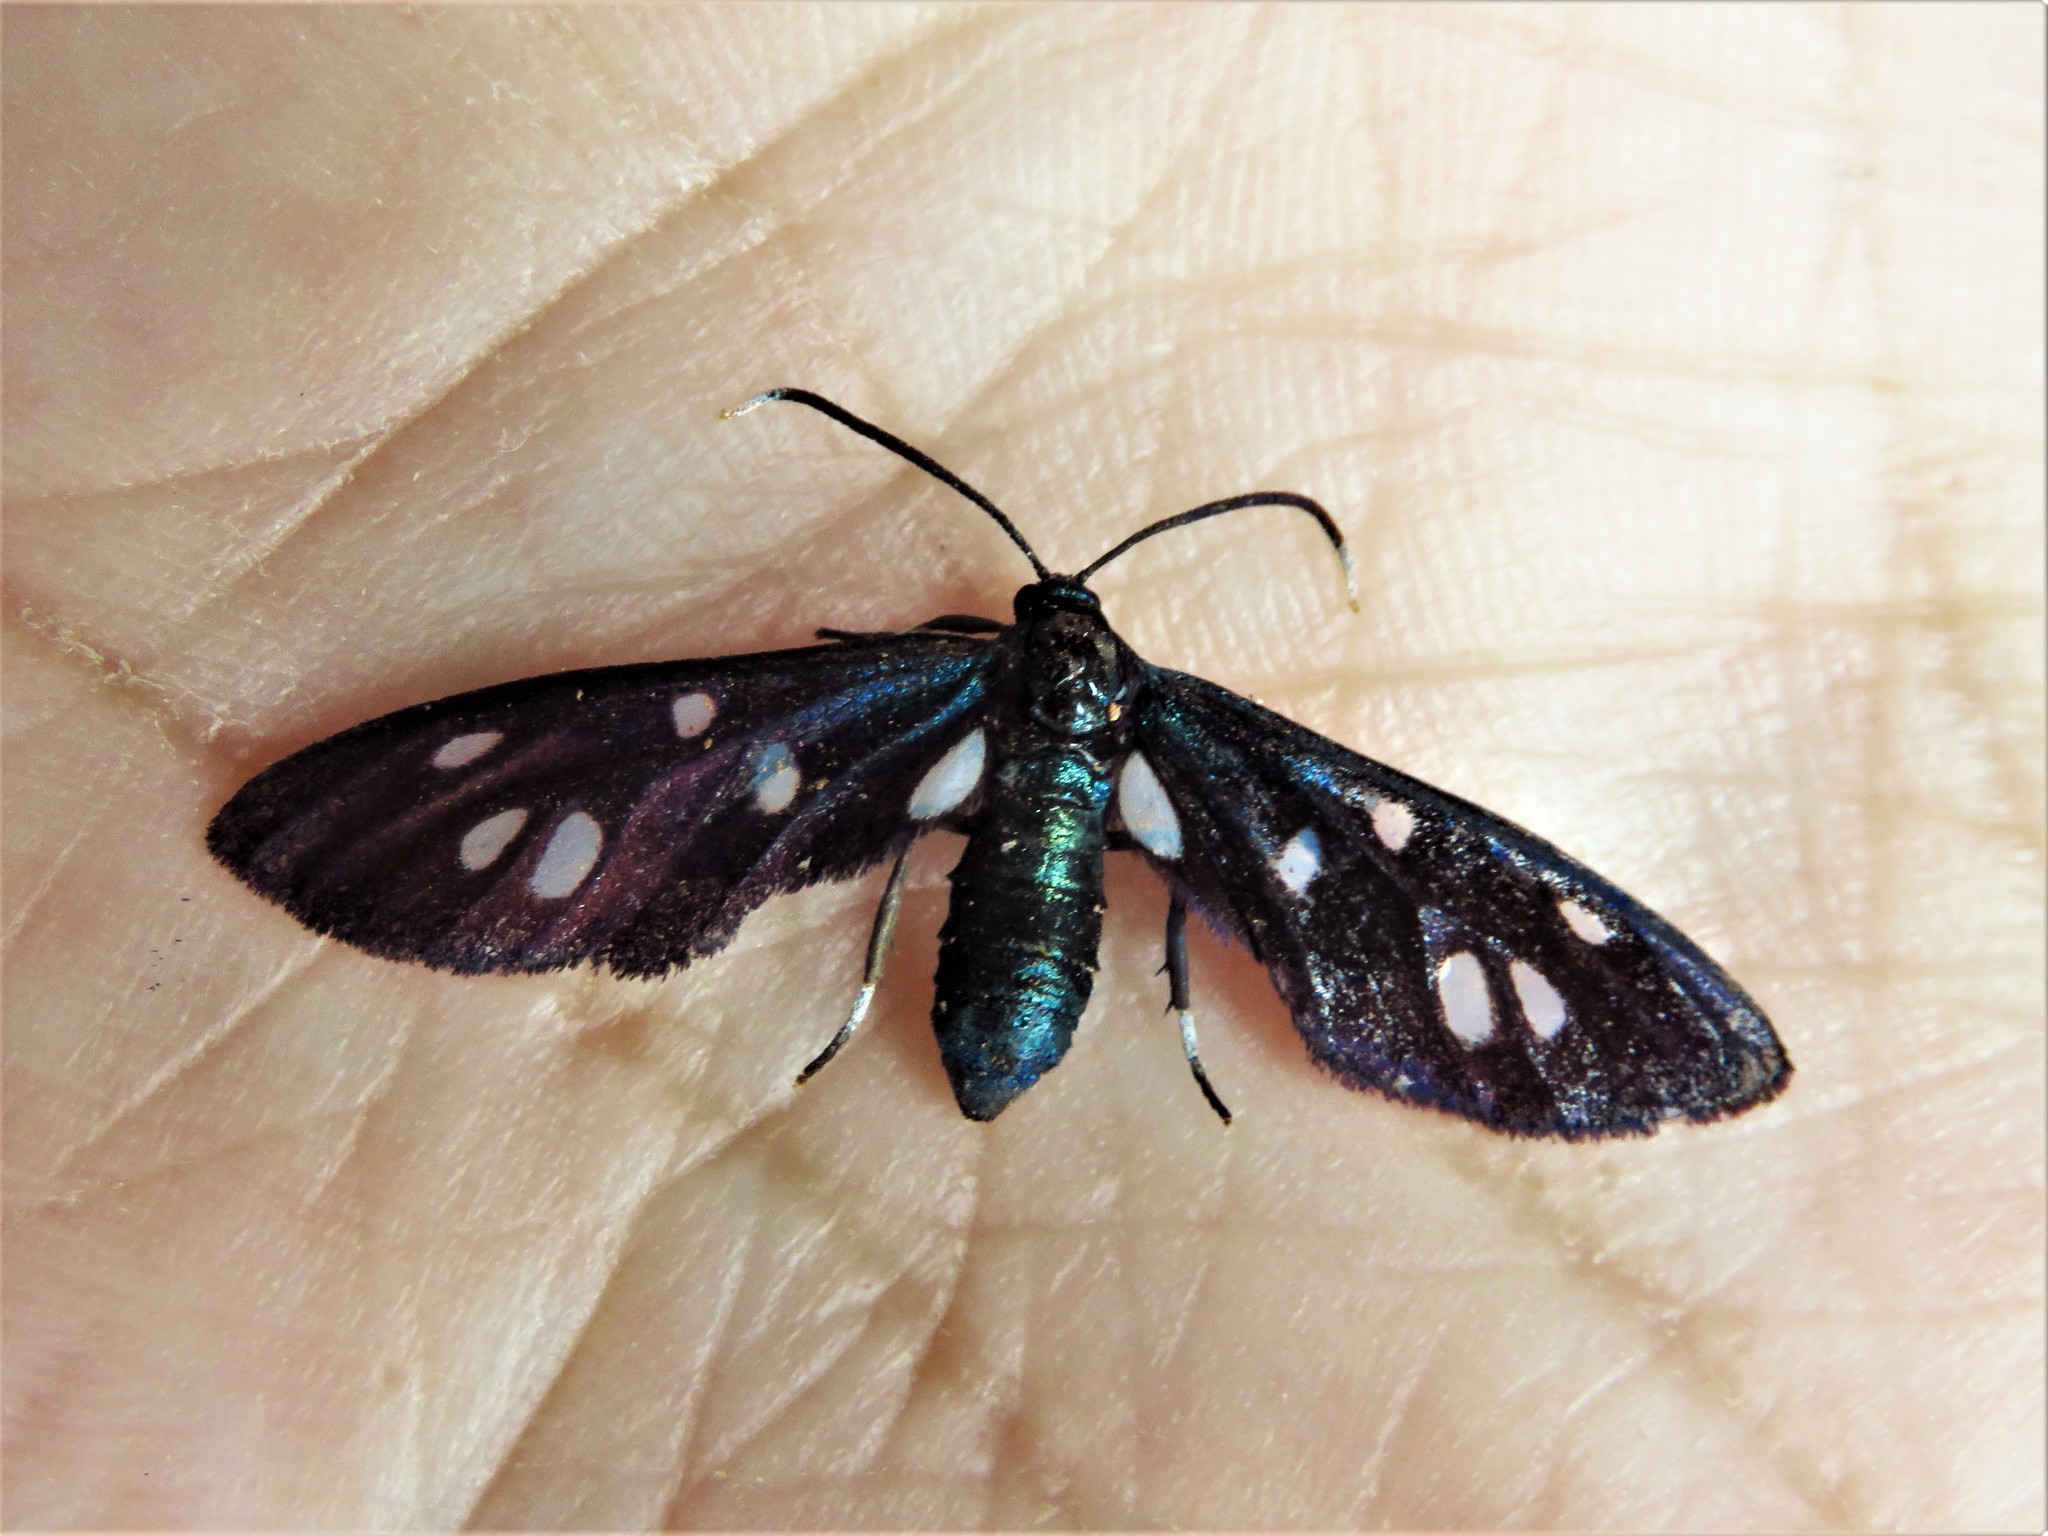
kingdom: Animalia
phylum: Arthropoda
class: Insecta
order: Lepidoptera
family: Erebidae
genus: Amata
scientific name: Amata marina
